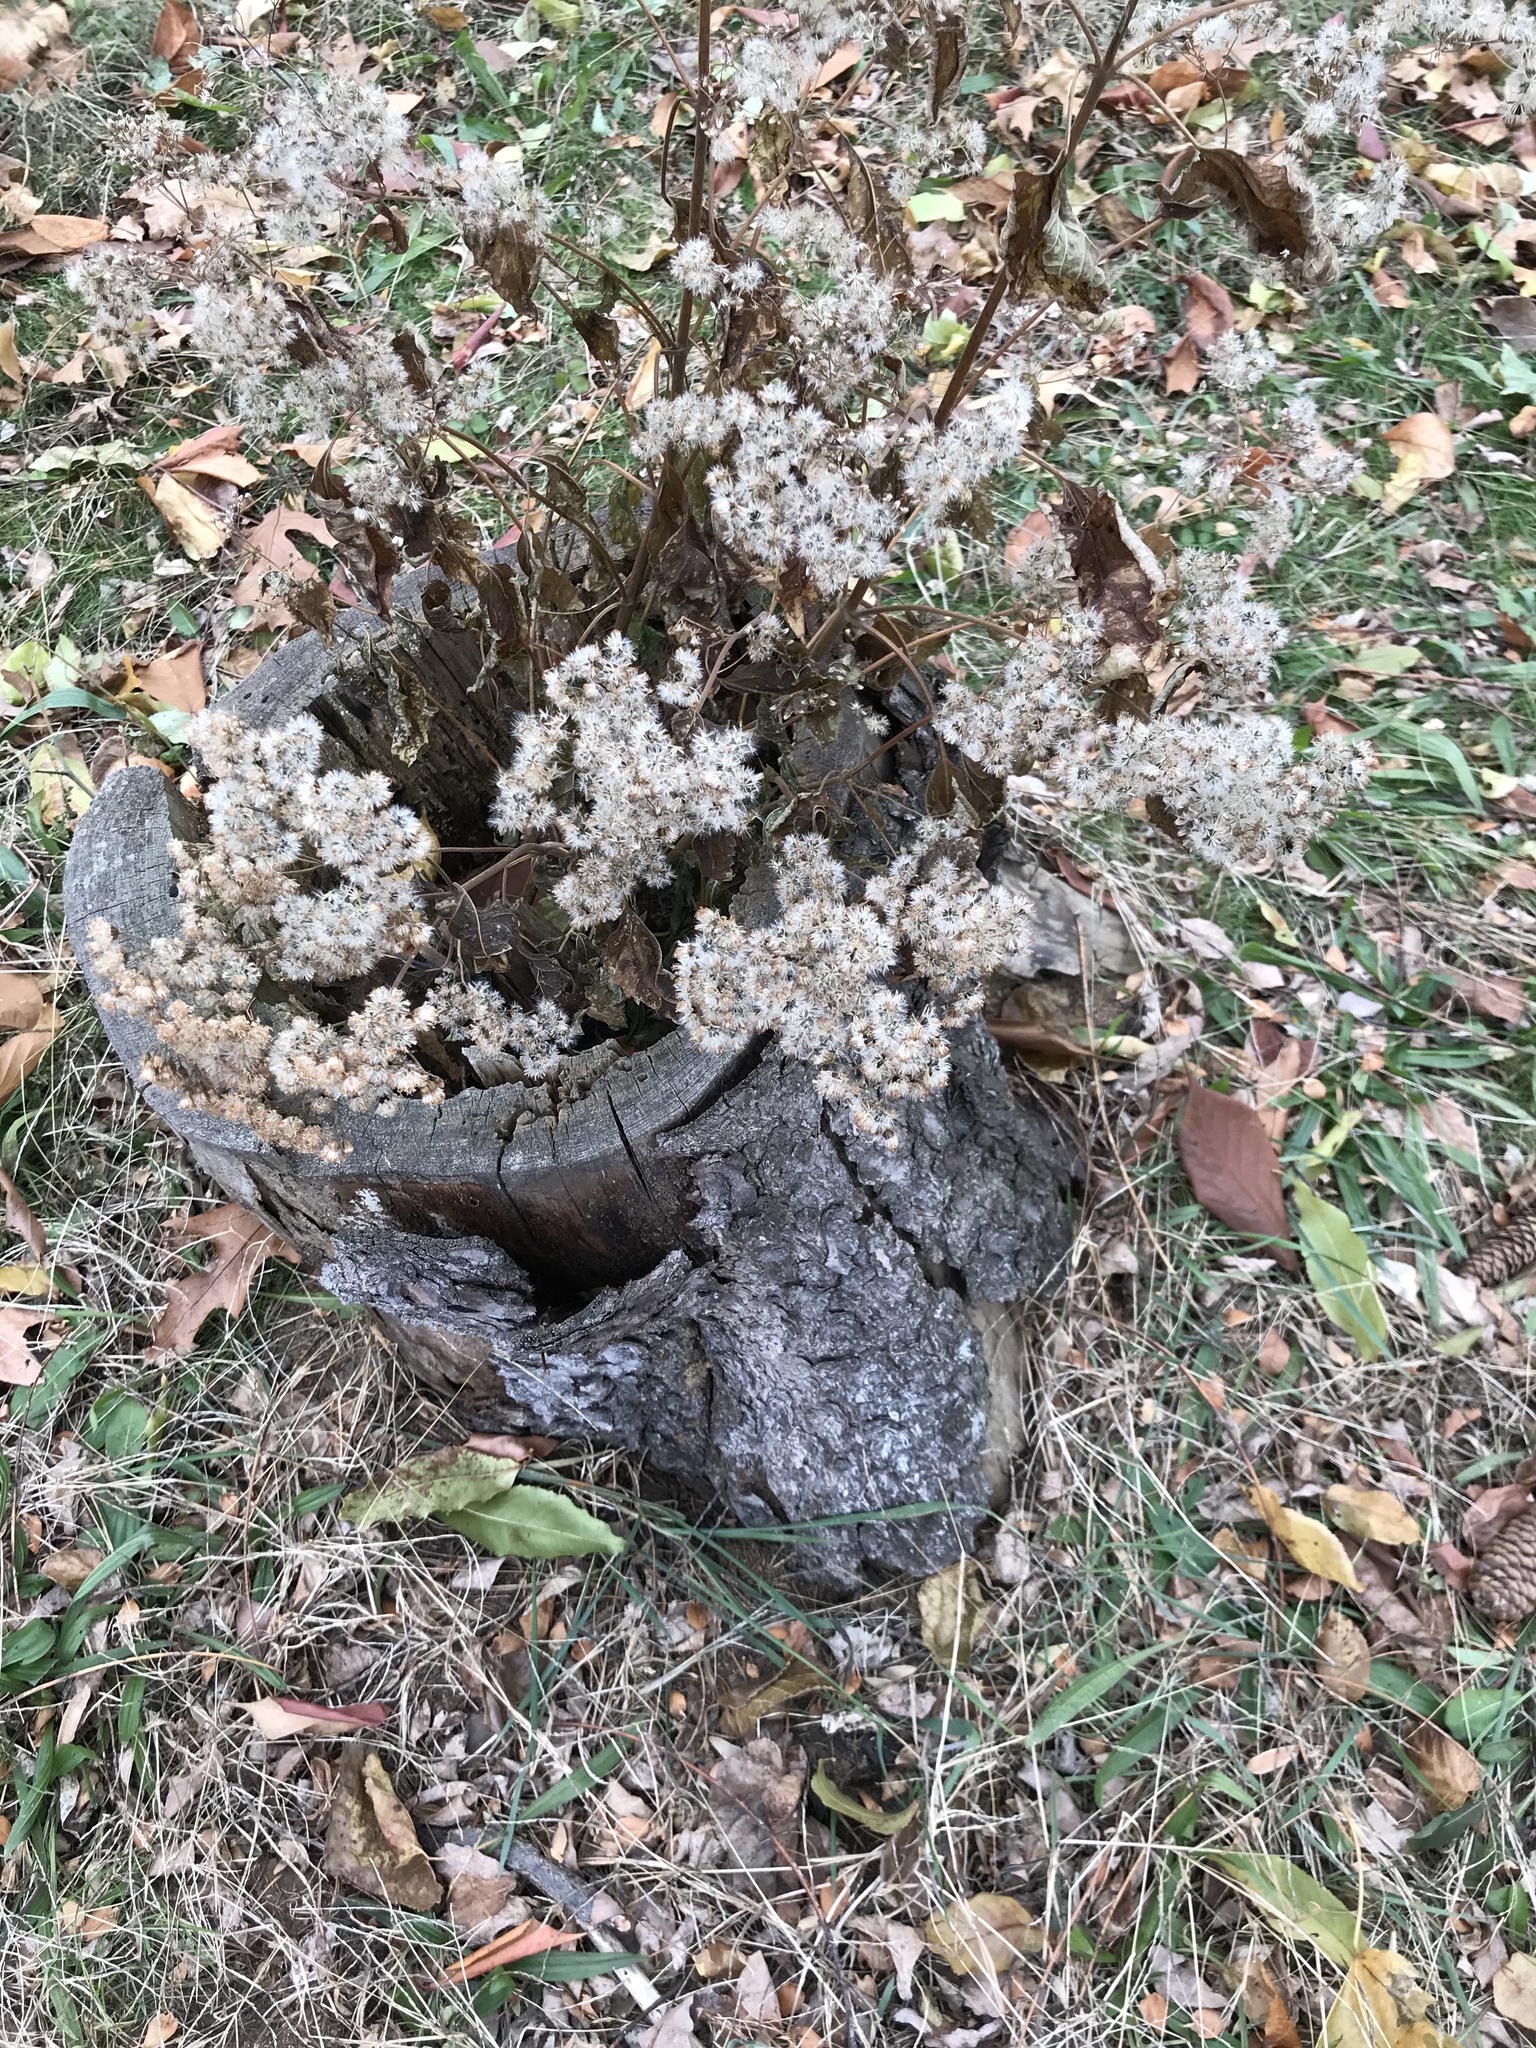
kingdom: Plantae
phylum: Tracheophyta
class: Magnoliopsida
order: Asterales
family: Asteraceae
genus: Ageratina
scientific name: Ageratina altissima
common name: White snakeroot
